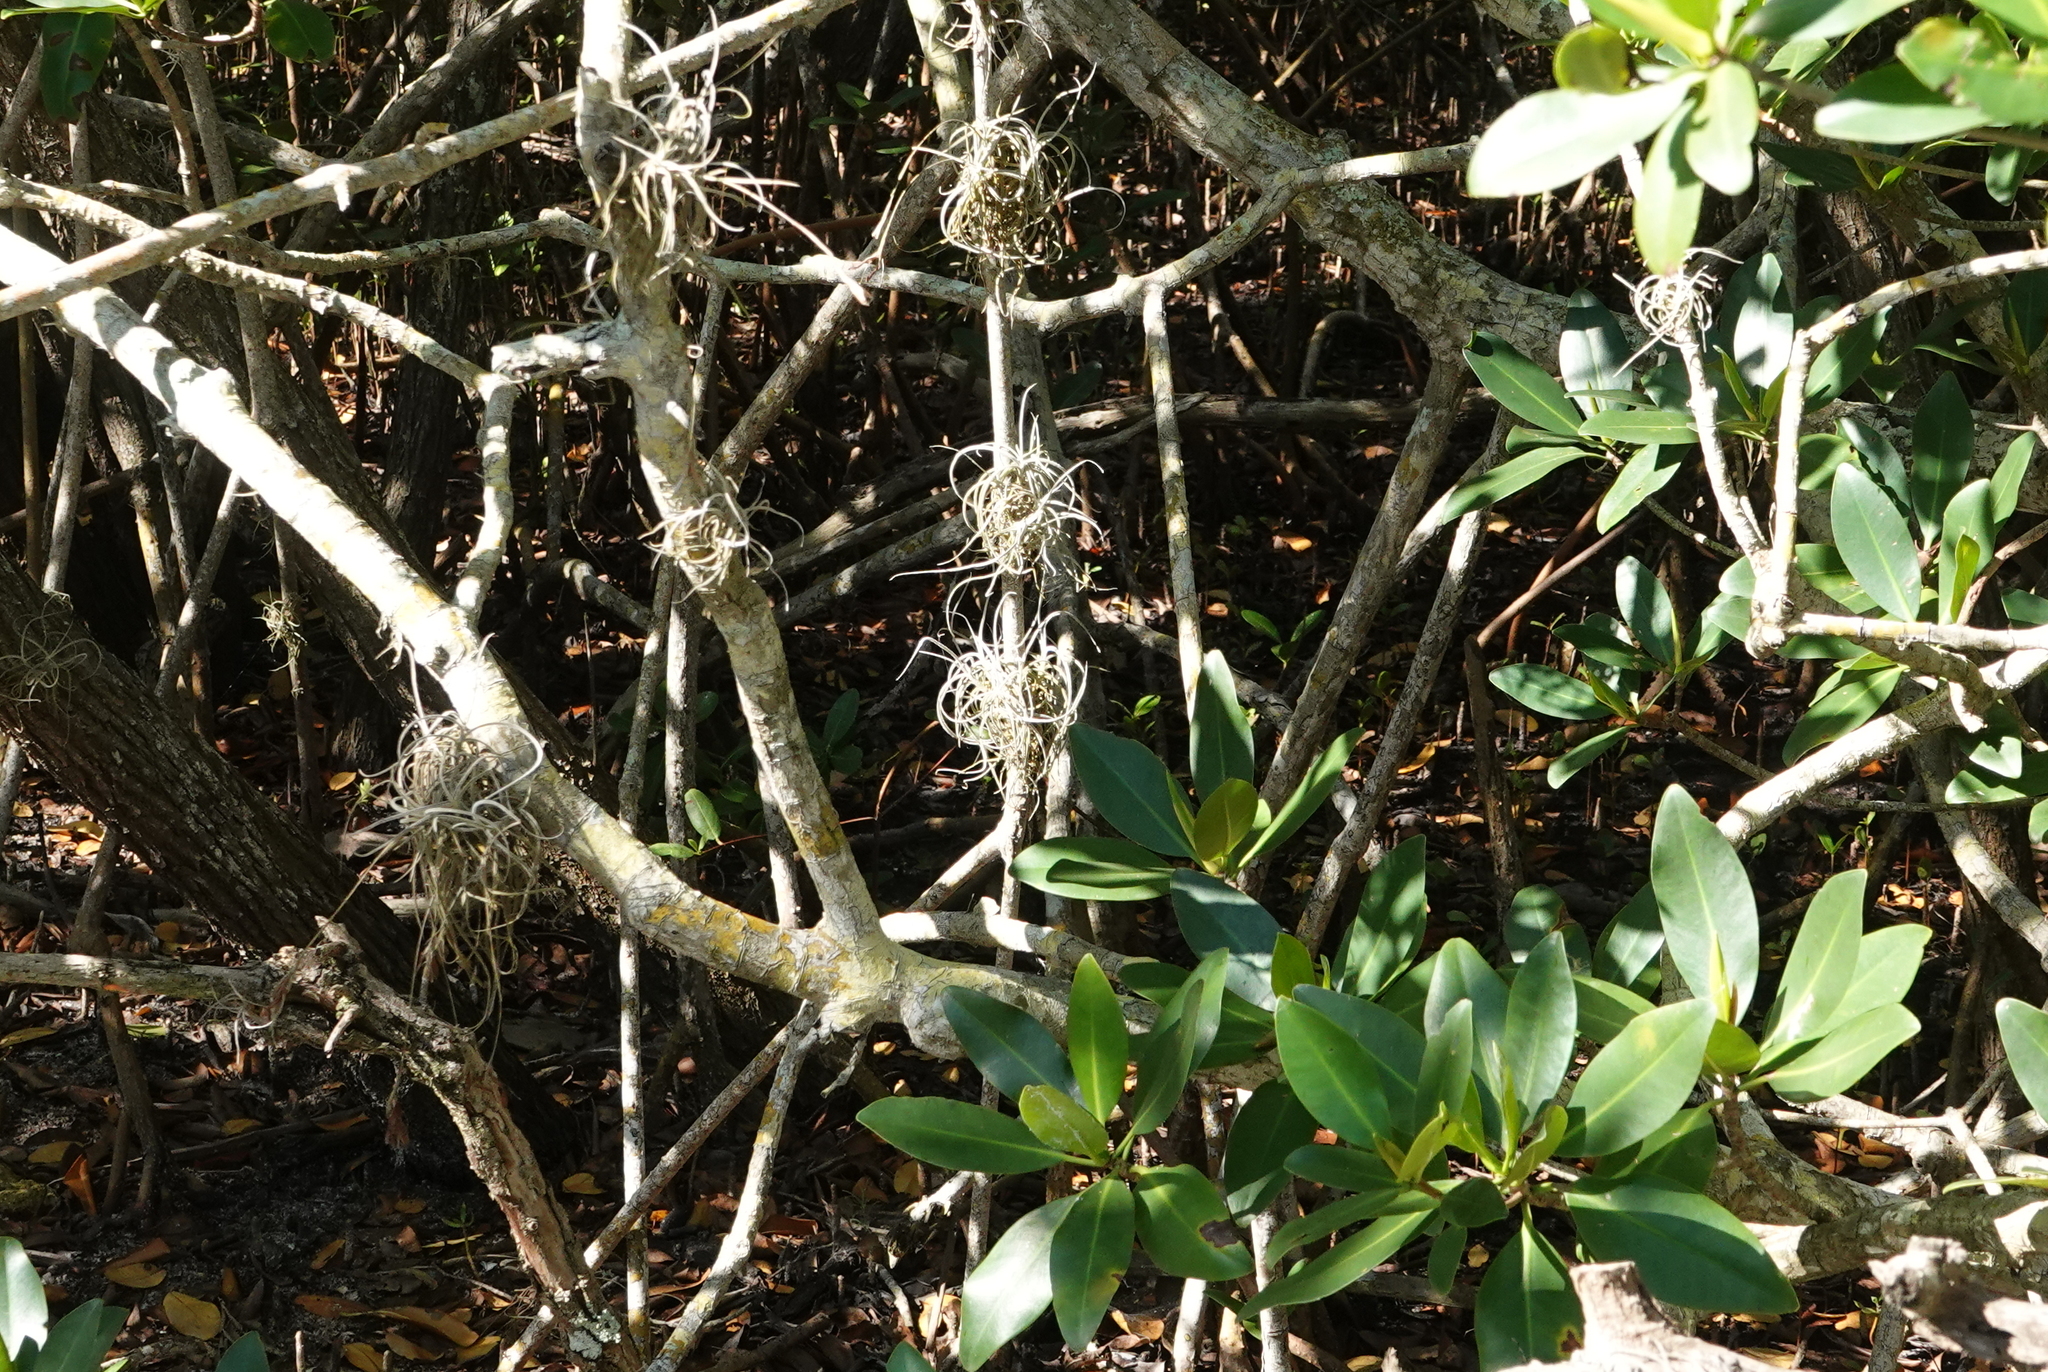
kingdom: Plantae
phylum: Tracheophyta
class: Liliopsida
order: Poales
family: Bromeliaceae
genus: Tillandsia
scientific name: Tillandsia recurvata
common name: Small ballmoss
